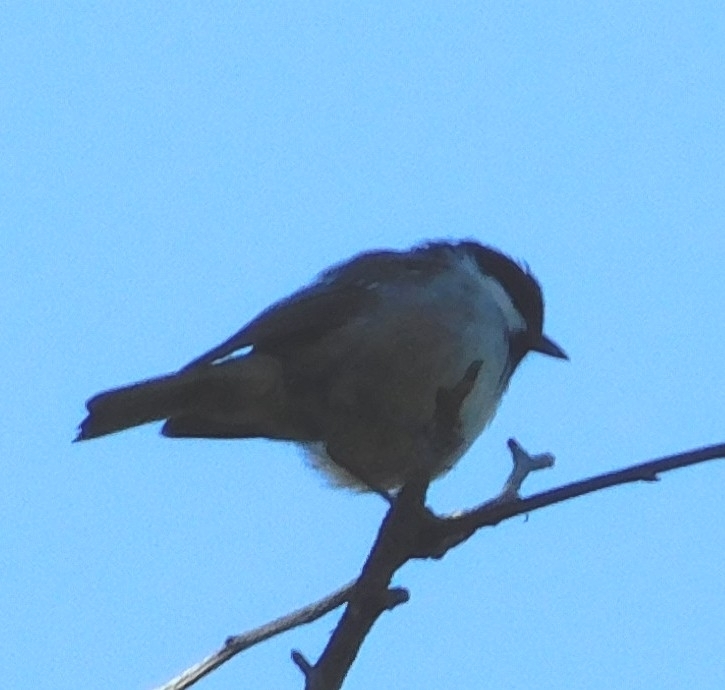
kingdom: Animalia
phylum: Chordata
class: Aves
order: Passeriformes
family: Paridae
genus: Periparus
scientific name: Periparus ater
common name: Coal tit
